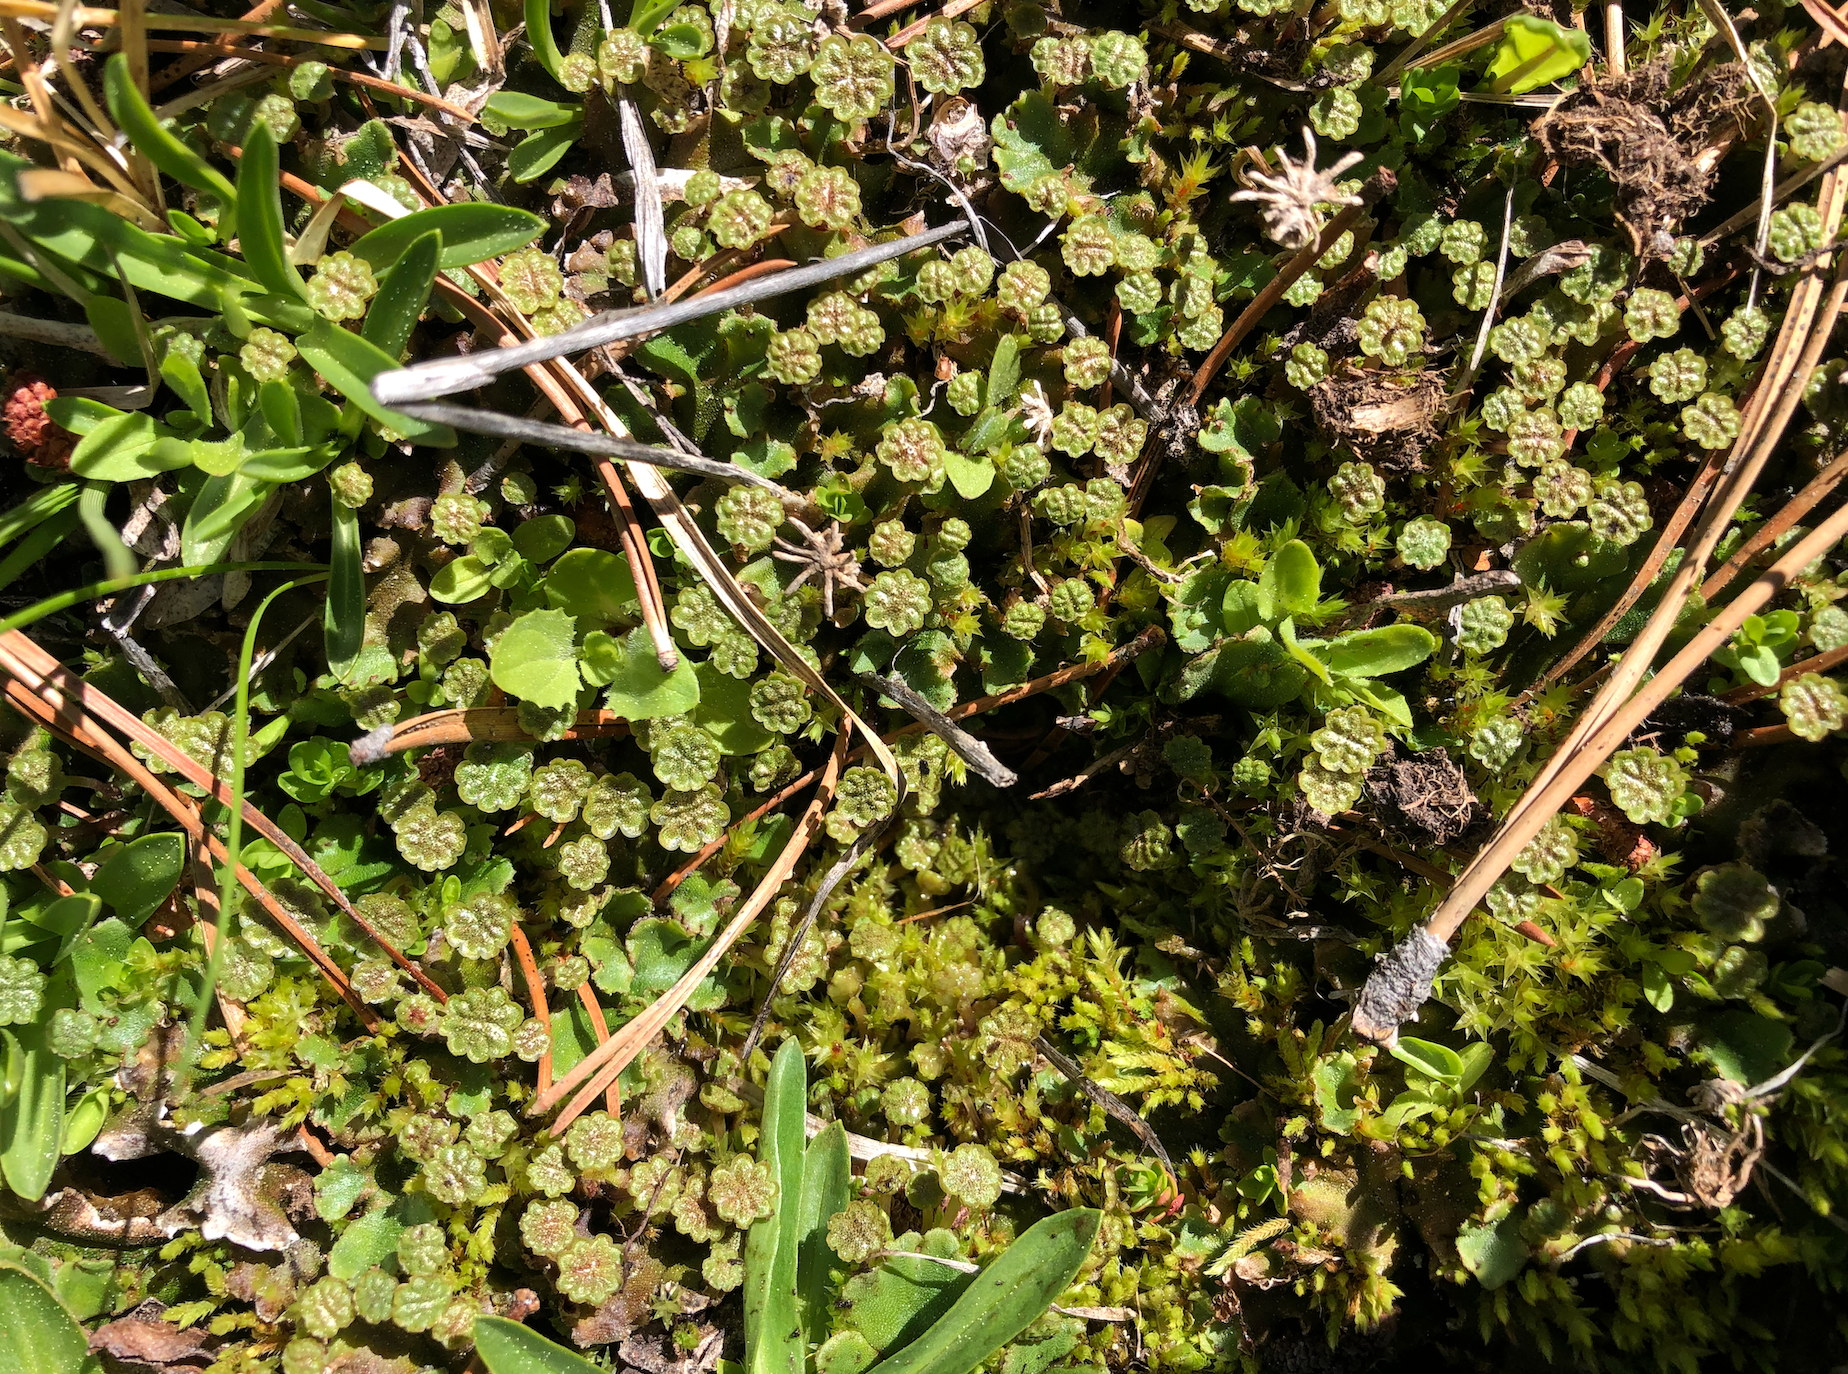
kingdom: Plantae
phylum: Marchantiophyta
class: Marchantiopsida
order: Marchantiales
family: Marchantiaceae
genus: Marchantia
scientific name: Marchantia polymorpha
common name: Common liverwort
